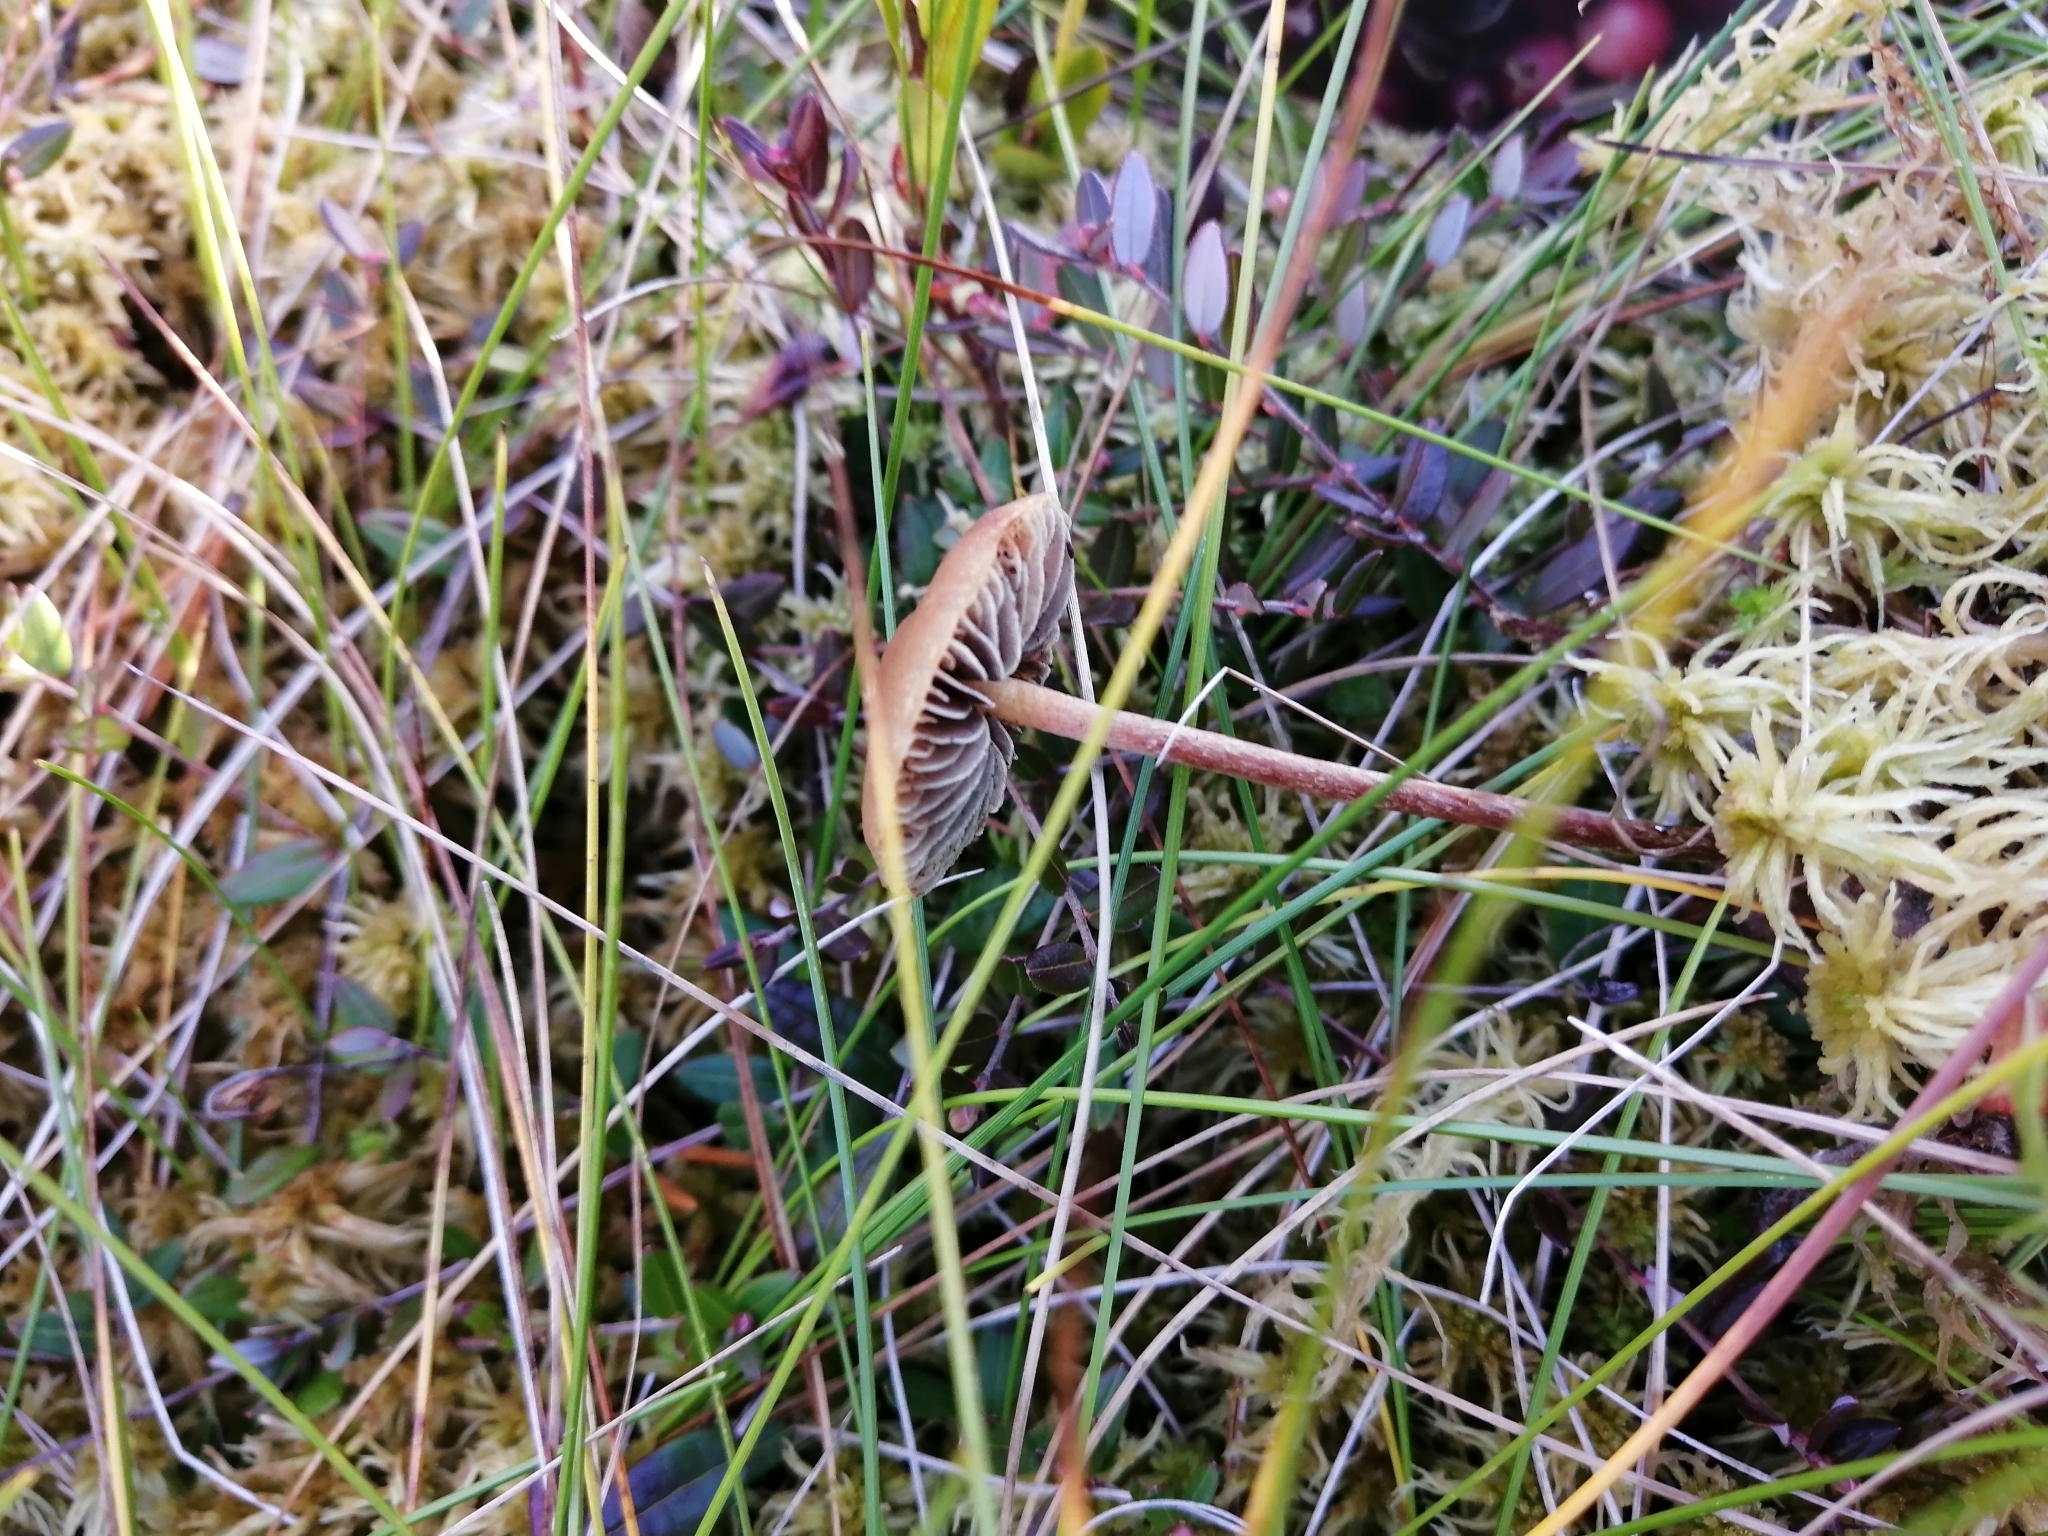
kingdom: Fungi
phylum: Basidiomycota
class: Agaricomycetes
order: Agaricales
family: Strophariaceae
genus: Bogbodia
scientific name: Bogbodia uda
